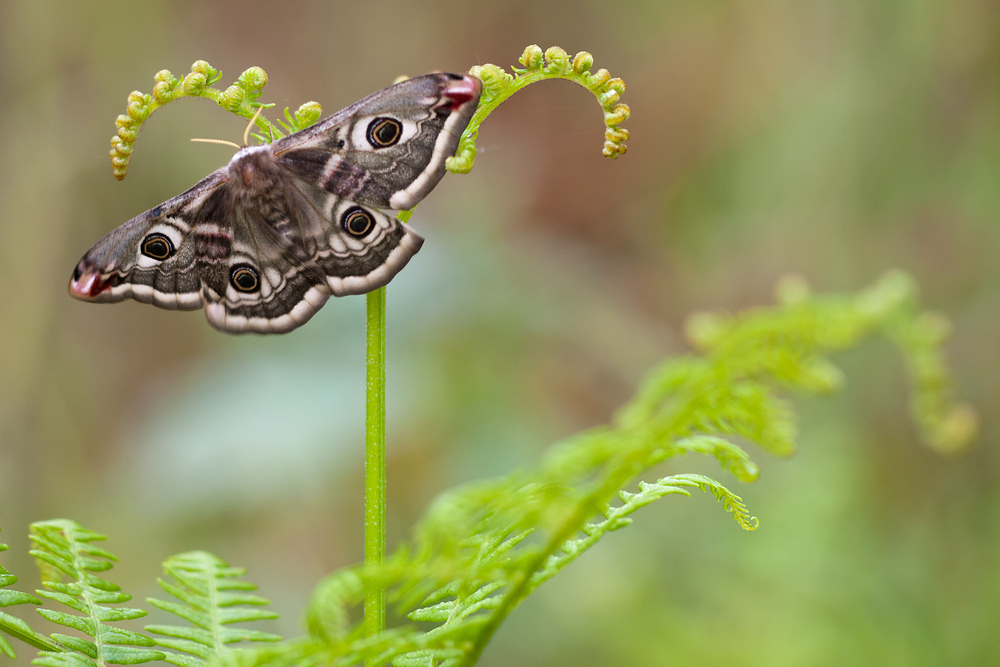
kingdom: Animalia
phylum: Arthropoda
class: Insecta
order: Lepidoptera
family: Saturniidae
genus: Saturnia
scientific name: Saturnia pavonia
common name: Emperor moth
